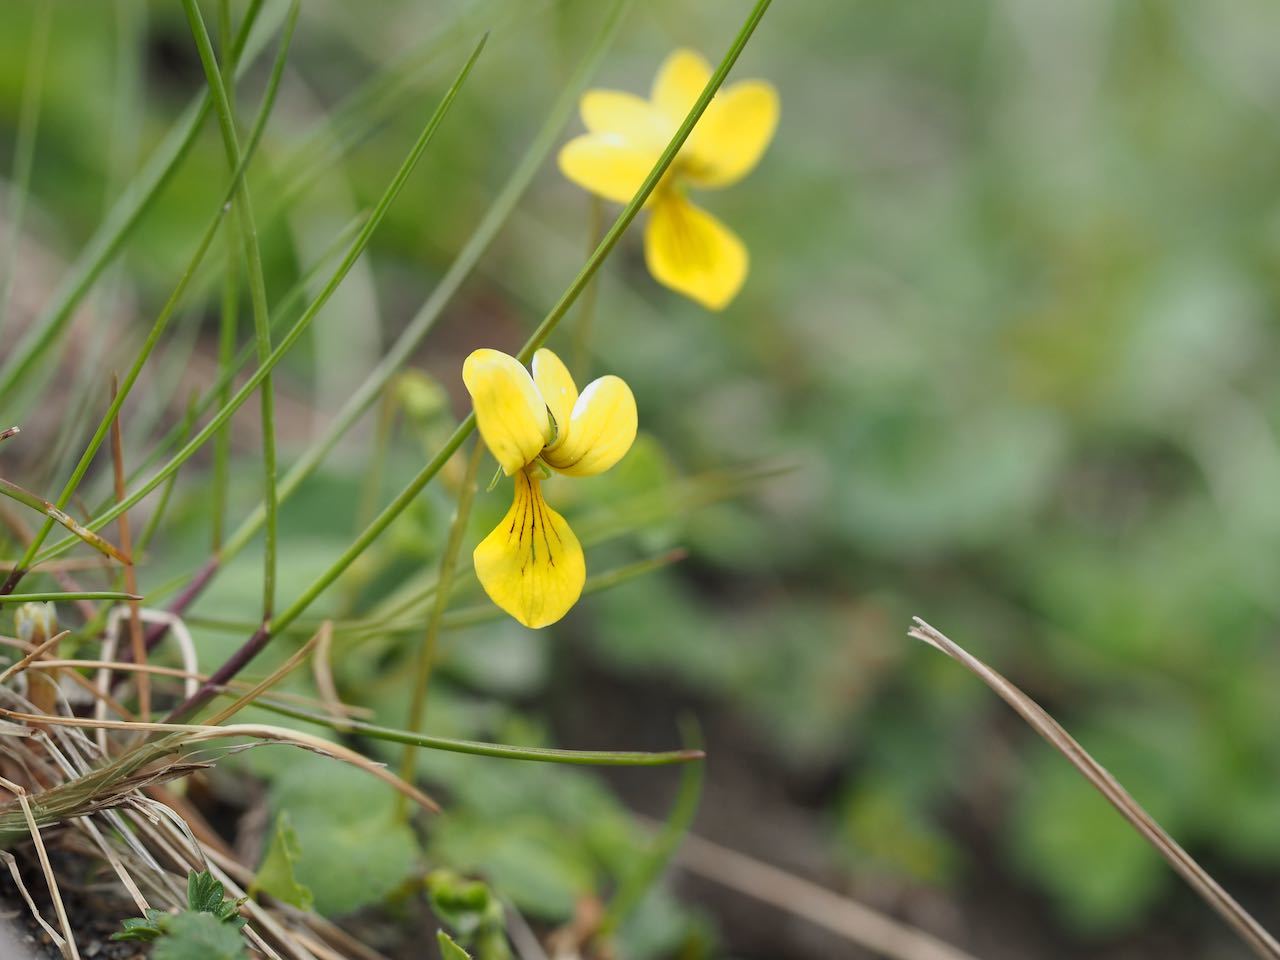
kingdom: Plantae
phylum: Tracheophyta
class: Magnoliopsida
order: Malpighiales
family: Violaceae
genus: Viola
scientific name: Viola biflora
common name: Alpine yellow violet
